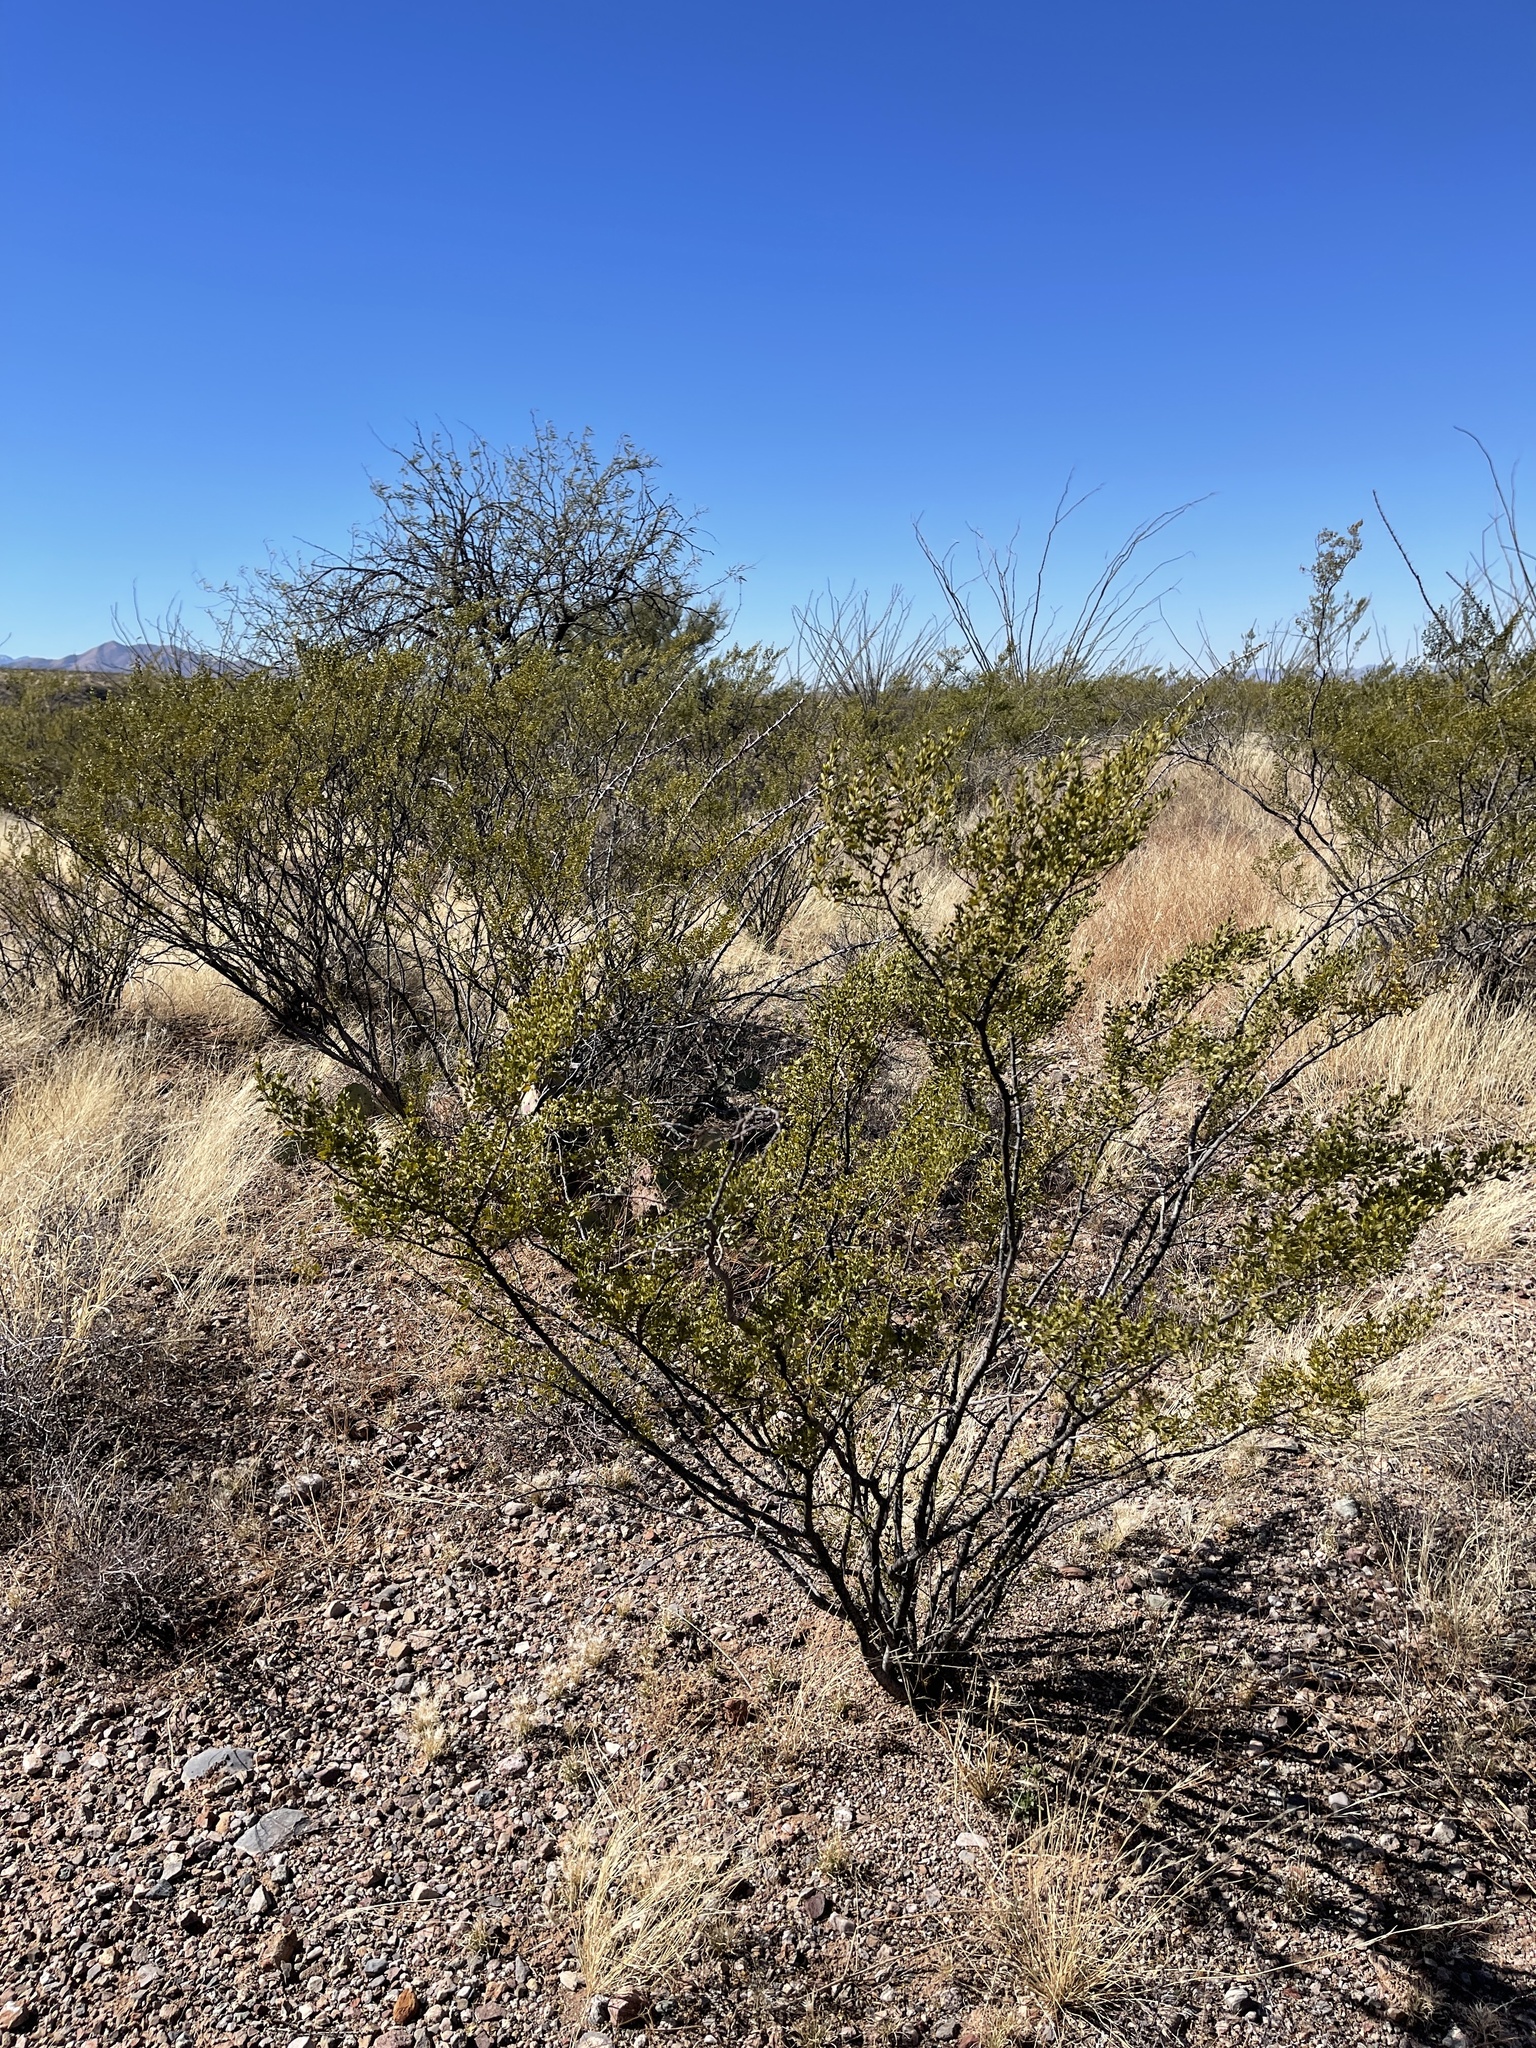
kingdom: Plantae
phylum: Tracheophyta
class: Magnoliopsida
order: Zygophyllales
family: Zygophyllaceae
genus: Larrea
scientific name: Larrea tridentata
